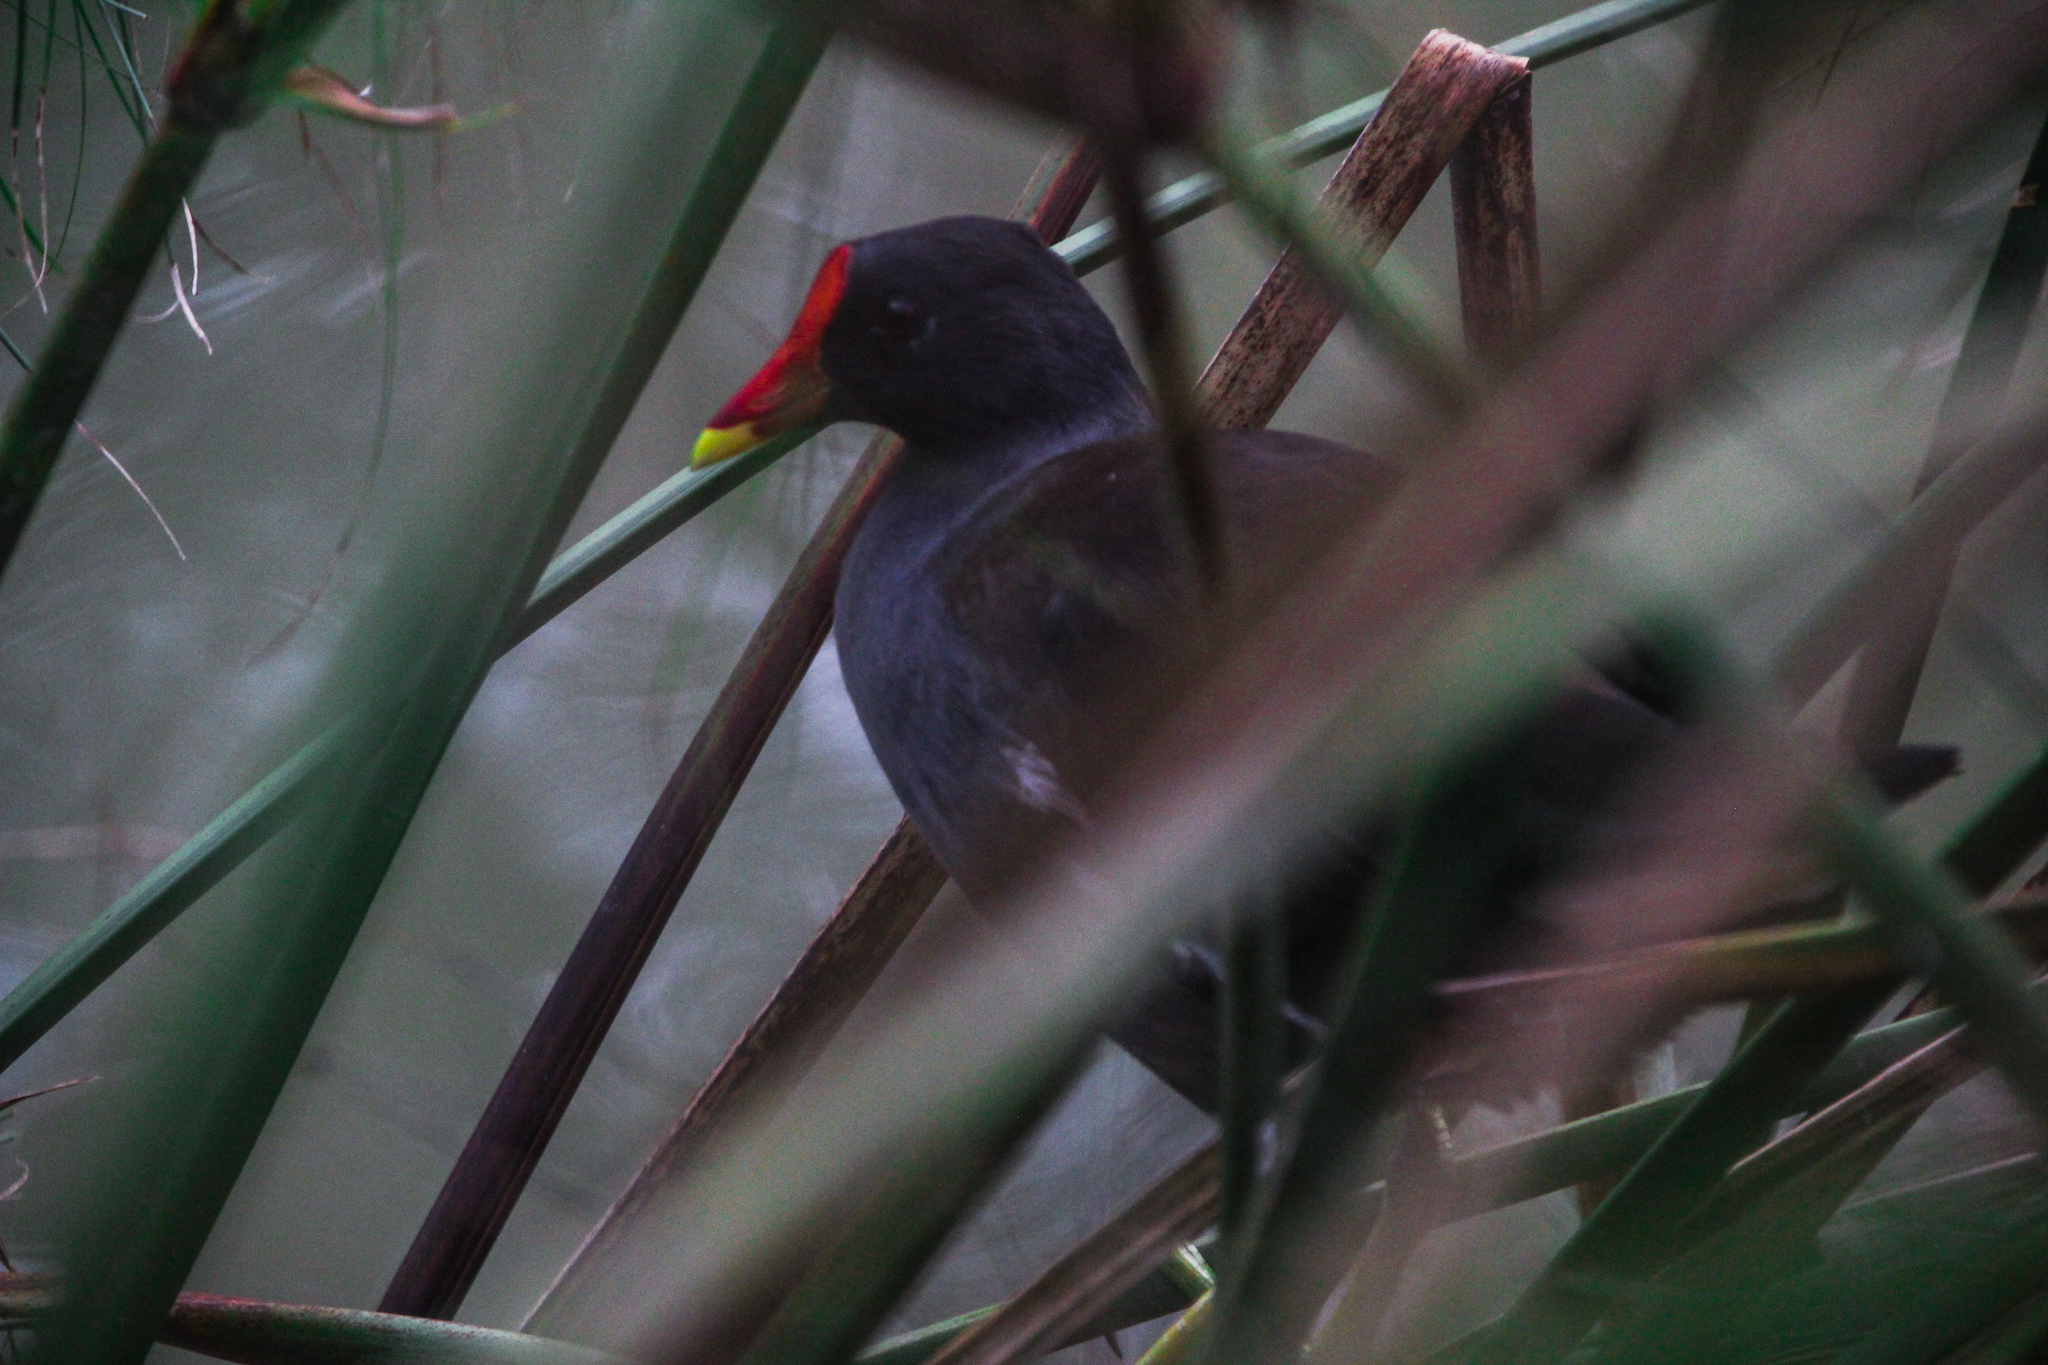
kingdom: Animalia
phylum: Chordata
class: Aves
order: Gruiformes
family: Rallidae
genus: Gallinula
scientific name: Gallinula chloropus
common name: Common moorhen
